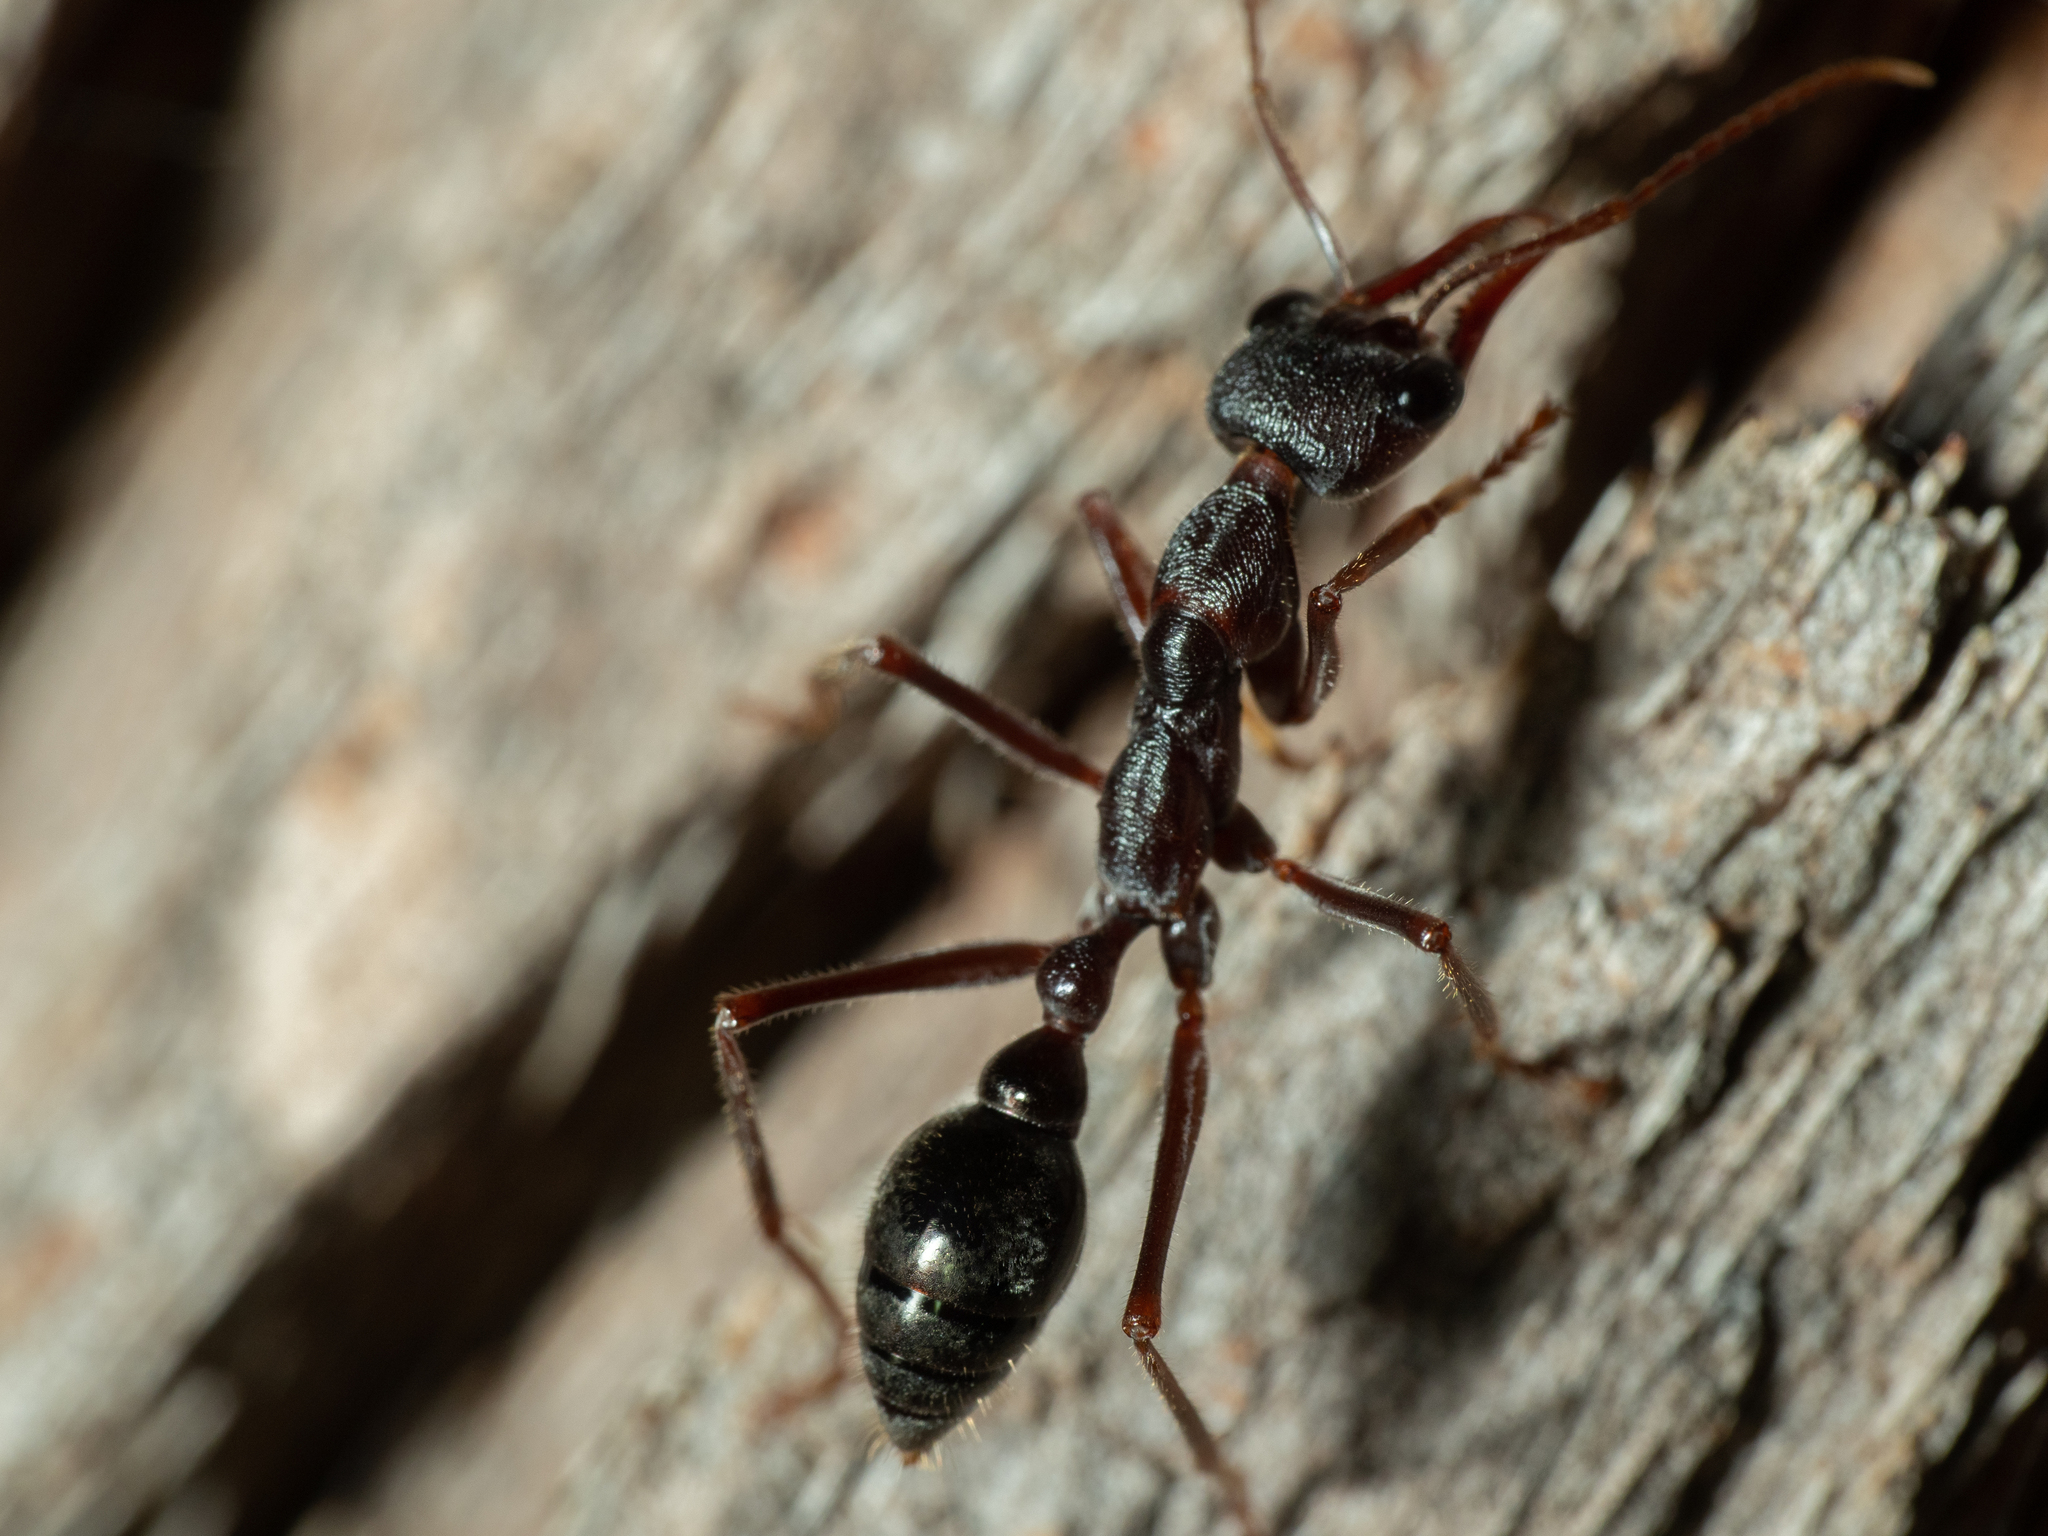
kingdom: Animalia
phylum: Arthropoda
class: Insecta
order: Hymenoptera
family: Formicidae
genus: Myrmecia
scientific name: Myrmecia pyriformis
